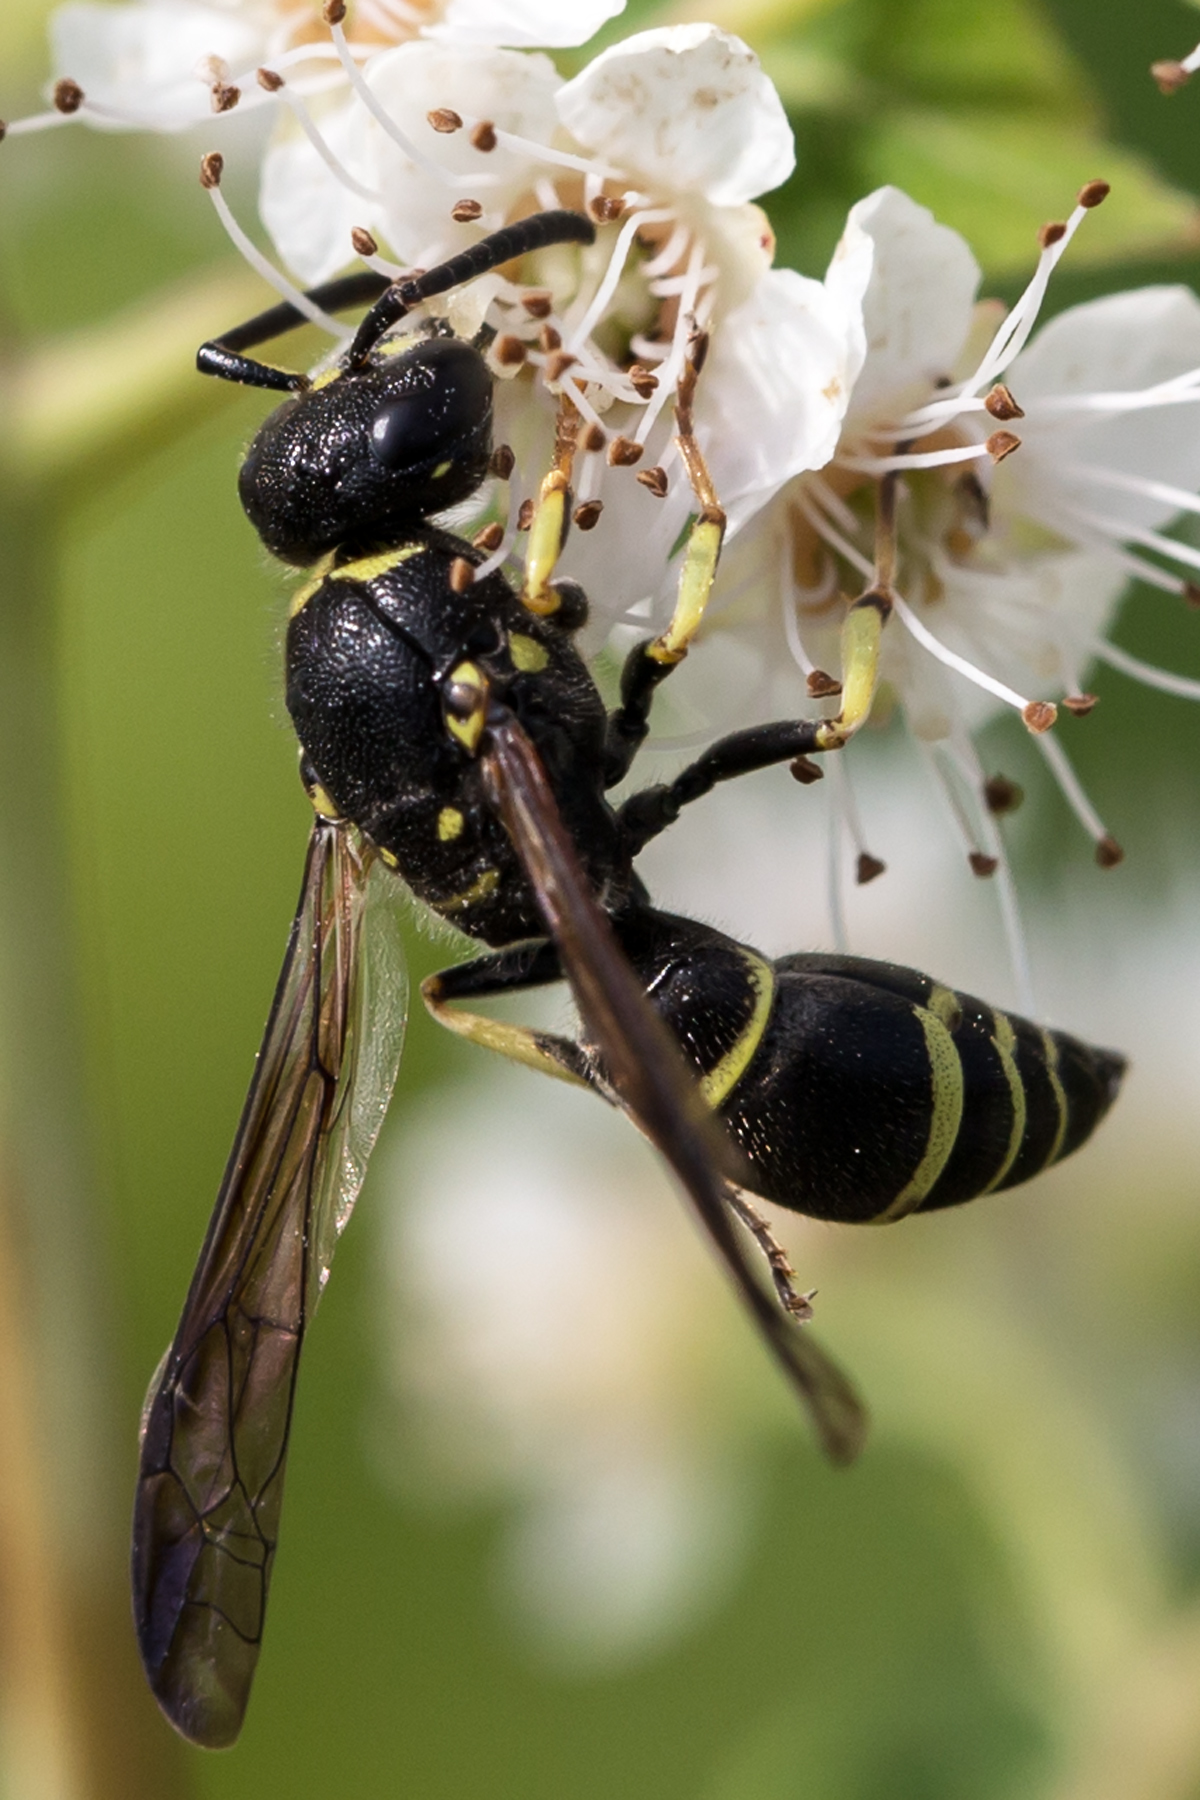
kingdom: Animalia
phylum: Arthropoda
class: Insecta
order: Hymenoptera
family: Vespidae
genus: Ancistrocerus
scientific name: Ancistrocerus adiabatus
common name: Bramble mason wasp
